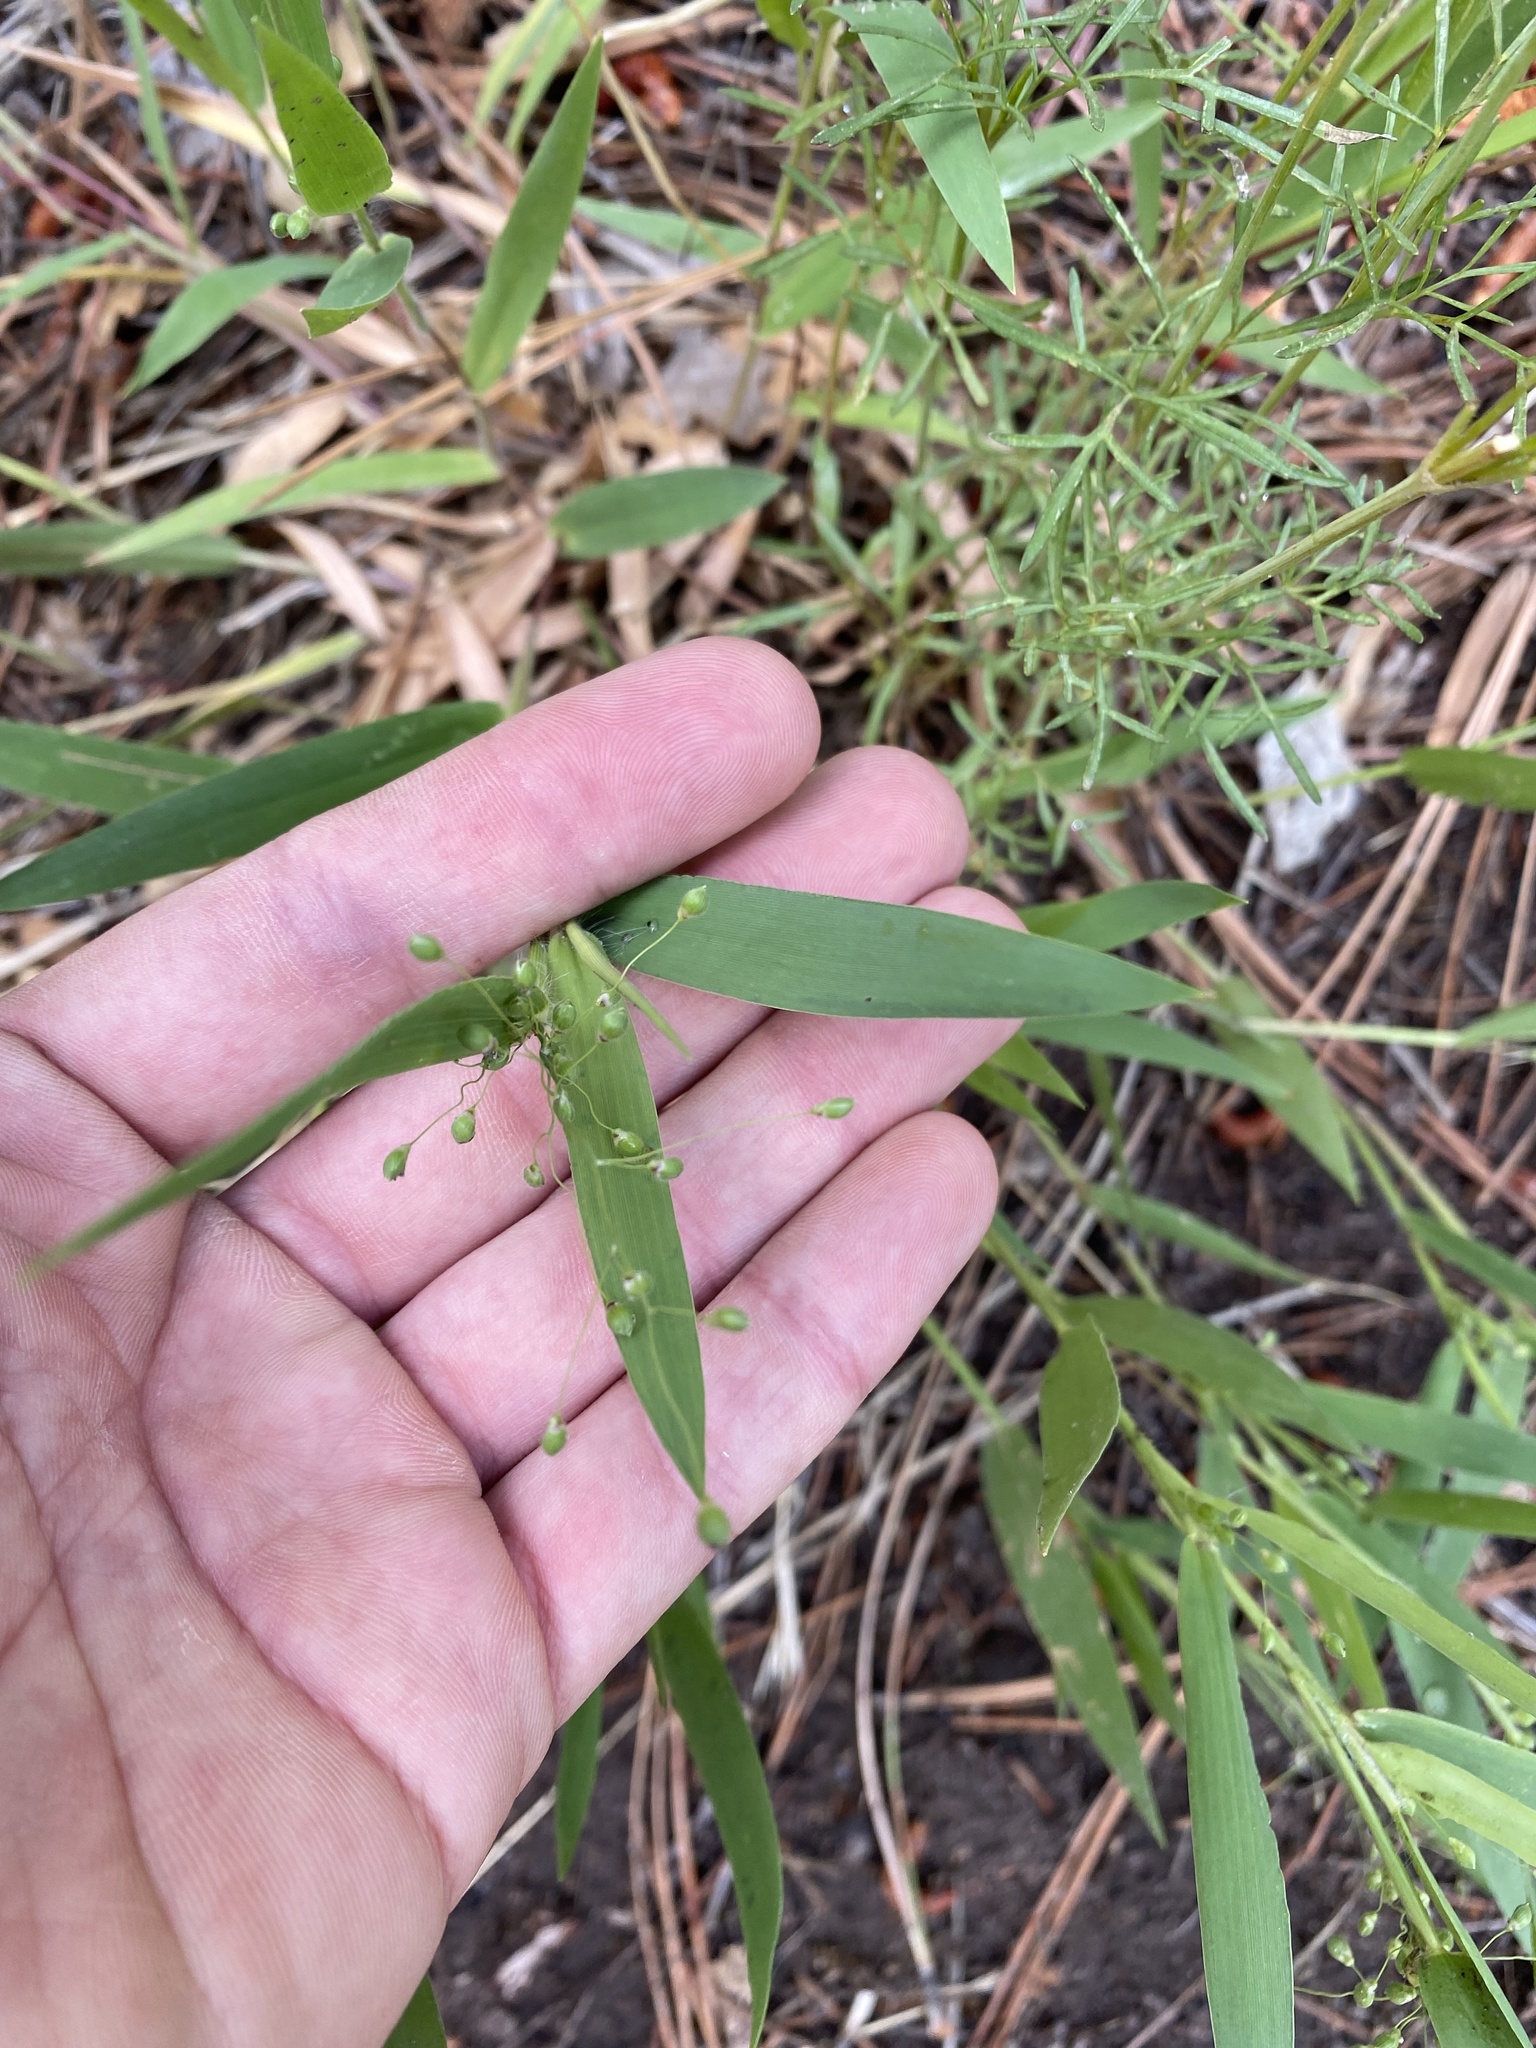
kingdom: Plantae
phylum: Tracheophyta
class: Liliopsida
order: Poales
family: Poaceae
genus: Dichanthelium
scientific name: Dichanthelium oligosanthes
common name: Few-anther obscuregrass
